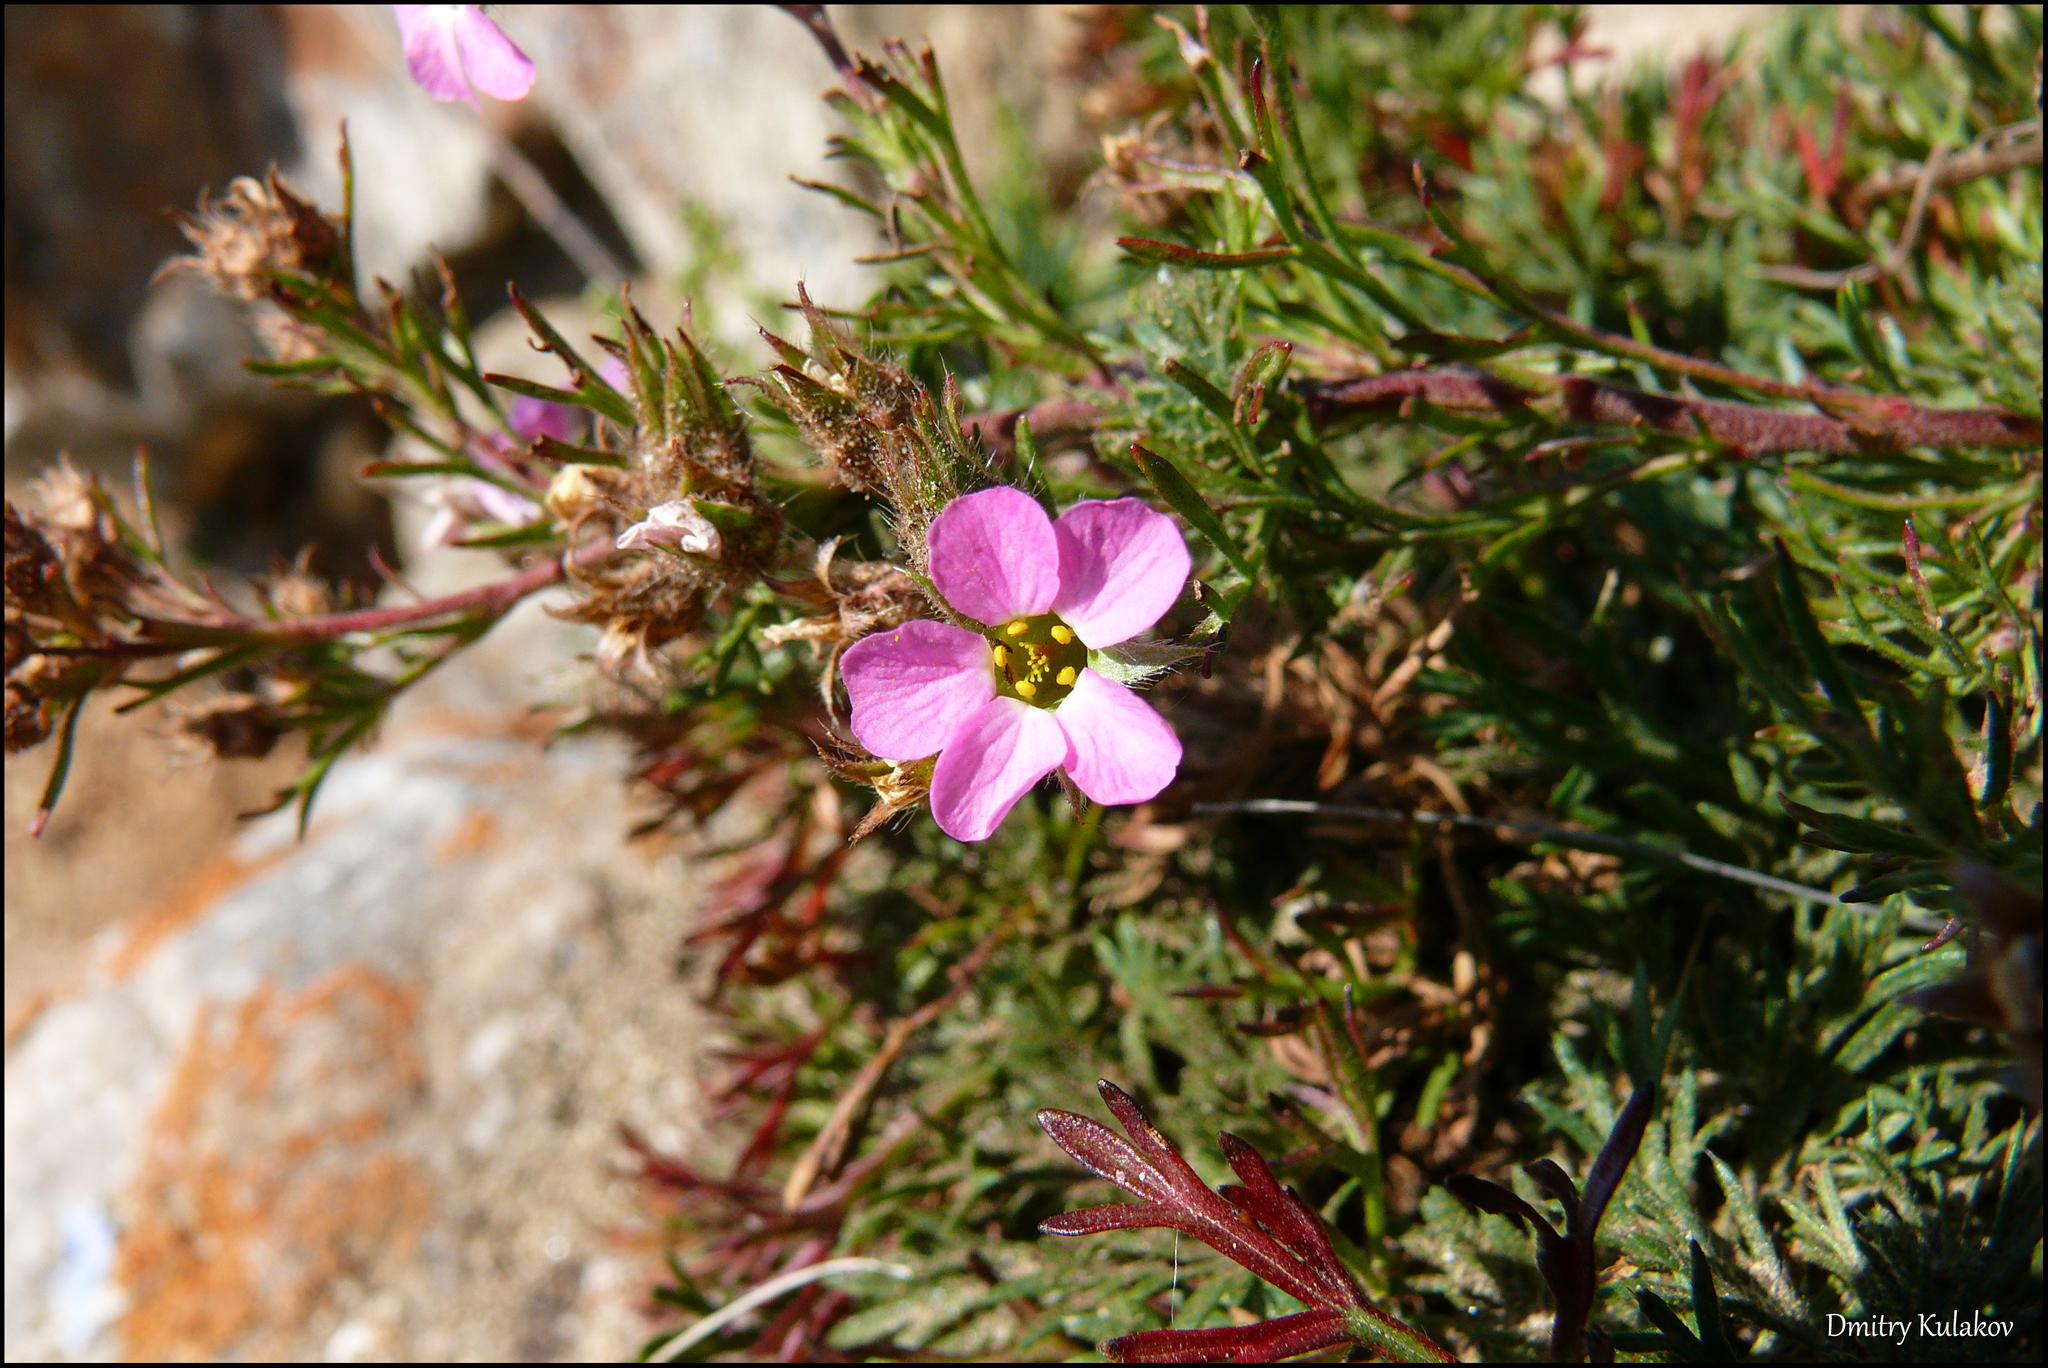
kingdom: Plantae
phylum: Tracheophyta
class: Magnoliopsida
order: Rosales
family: Rosaceae
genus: Chamaerhodos
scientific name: Chamaerhodos altaica
